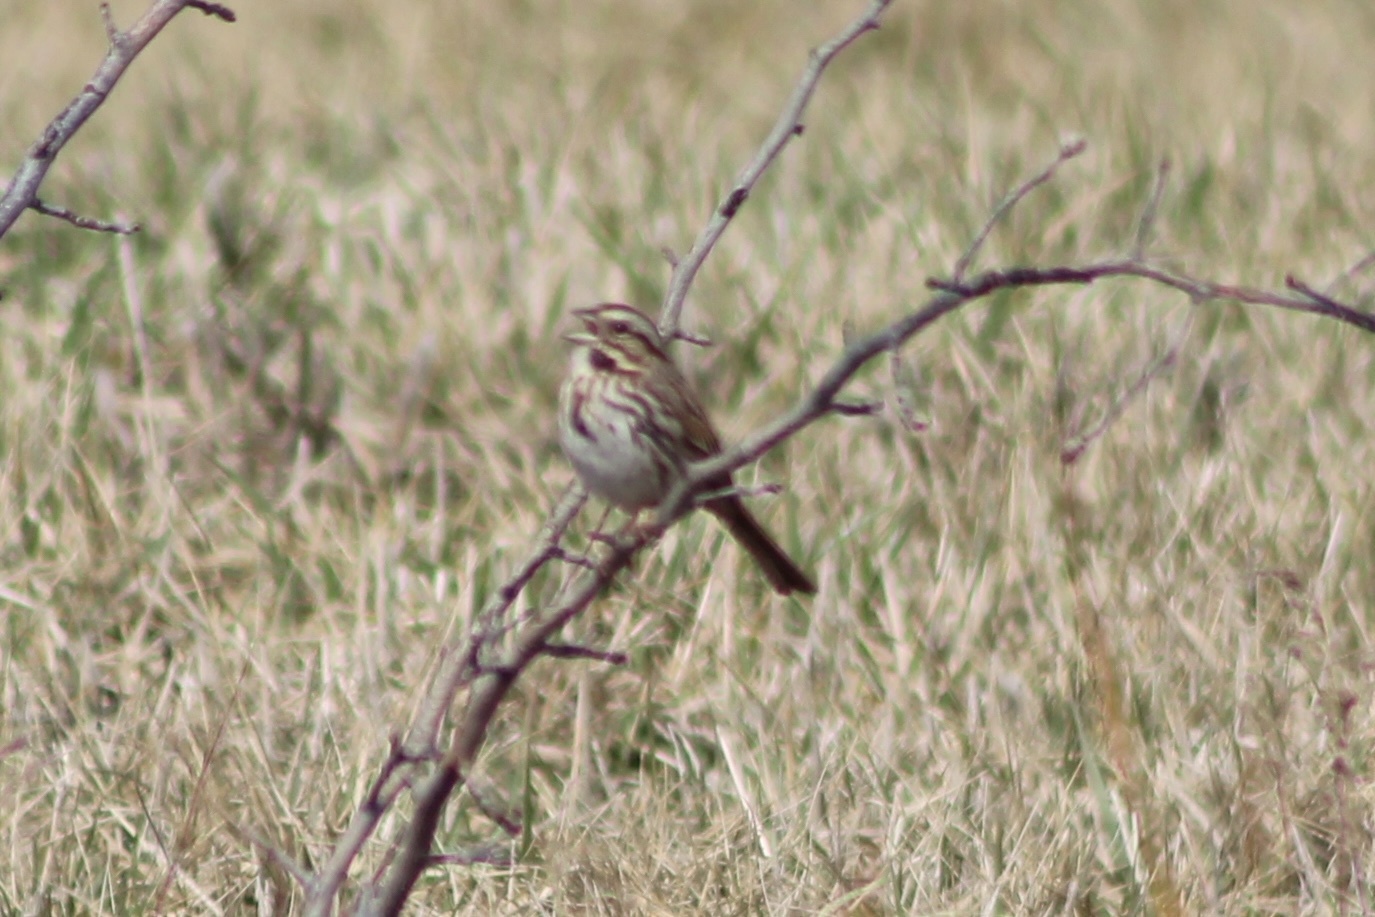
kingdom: Animalia
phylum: Chordata
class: Aves
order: Passeriformes
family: Passerellidae
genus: Melospiza
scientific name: Melospiza melodia
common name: Song sparrow
